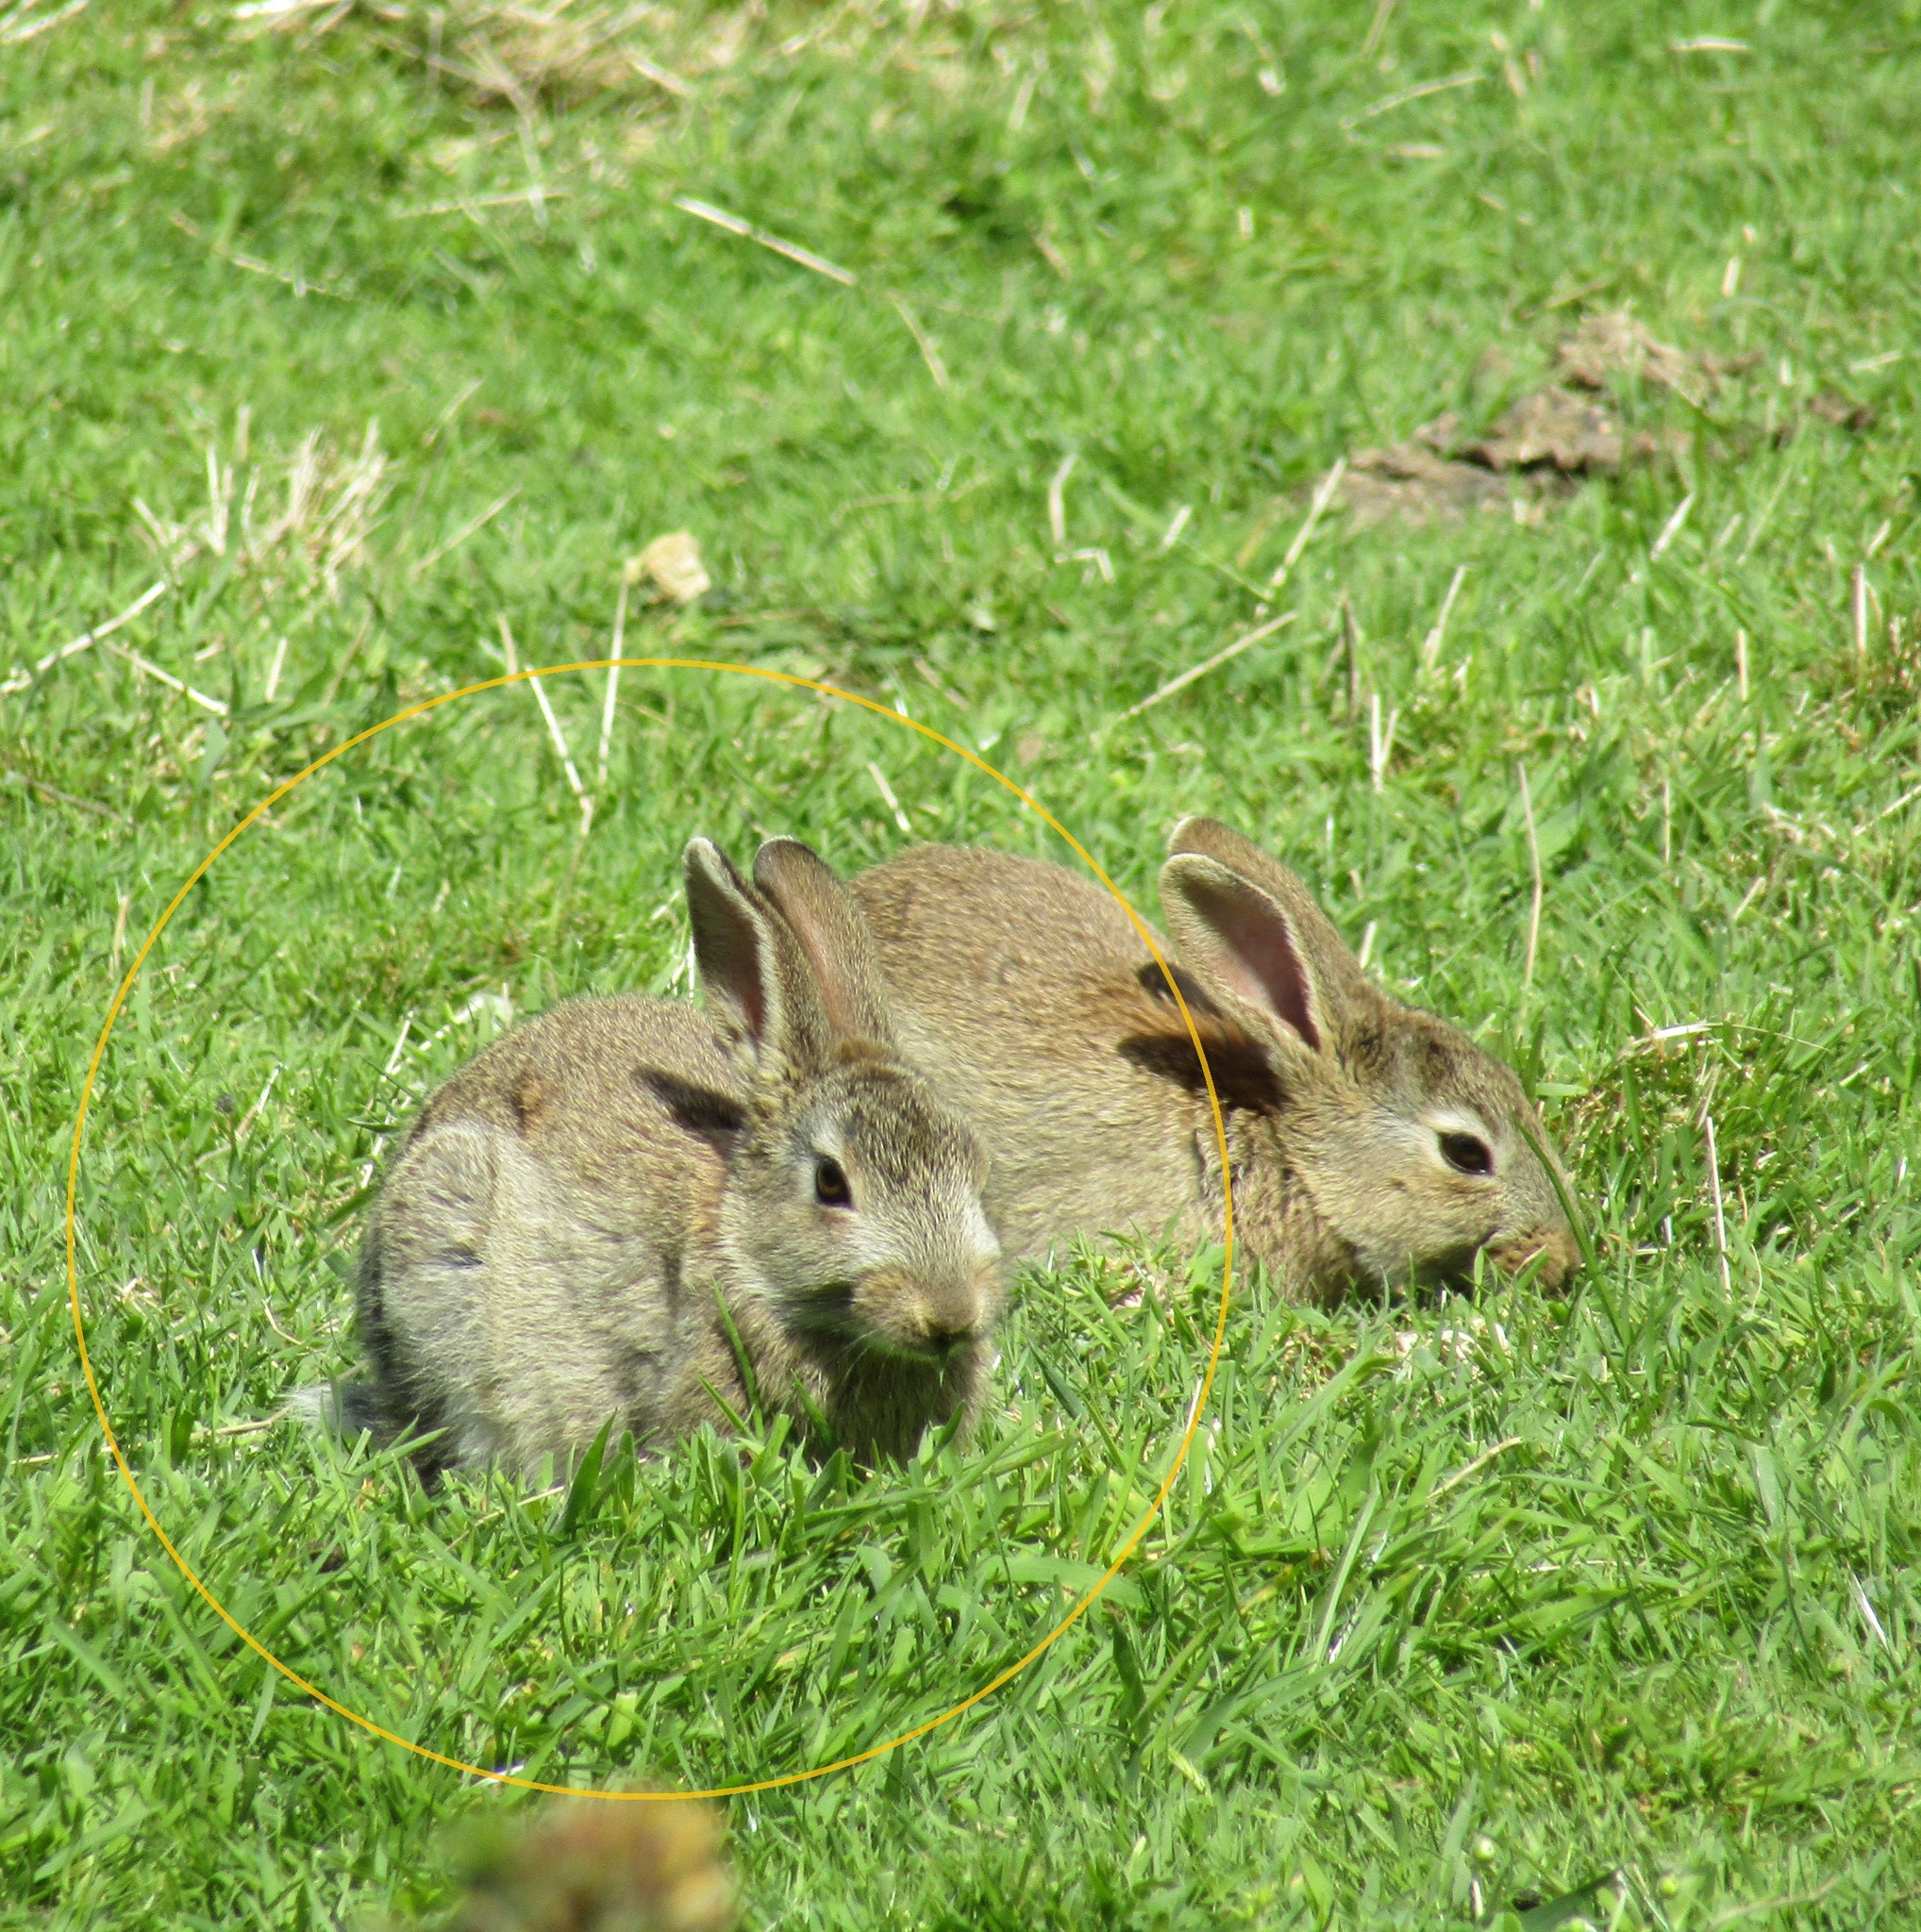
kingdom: Animalia
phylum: Chordata
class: Mammalia
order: Lagomorpha
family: Leporidae
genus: Oryctolagus
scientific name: Oryctolagus cuniculus
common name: European rabbit
